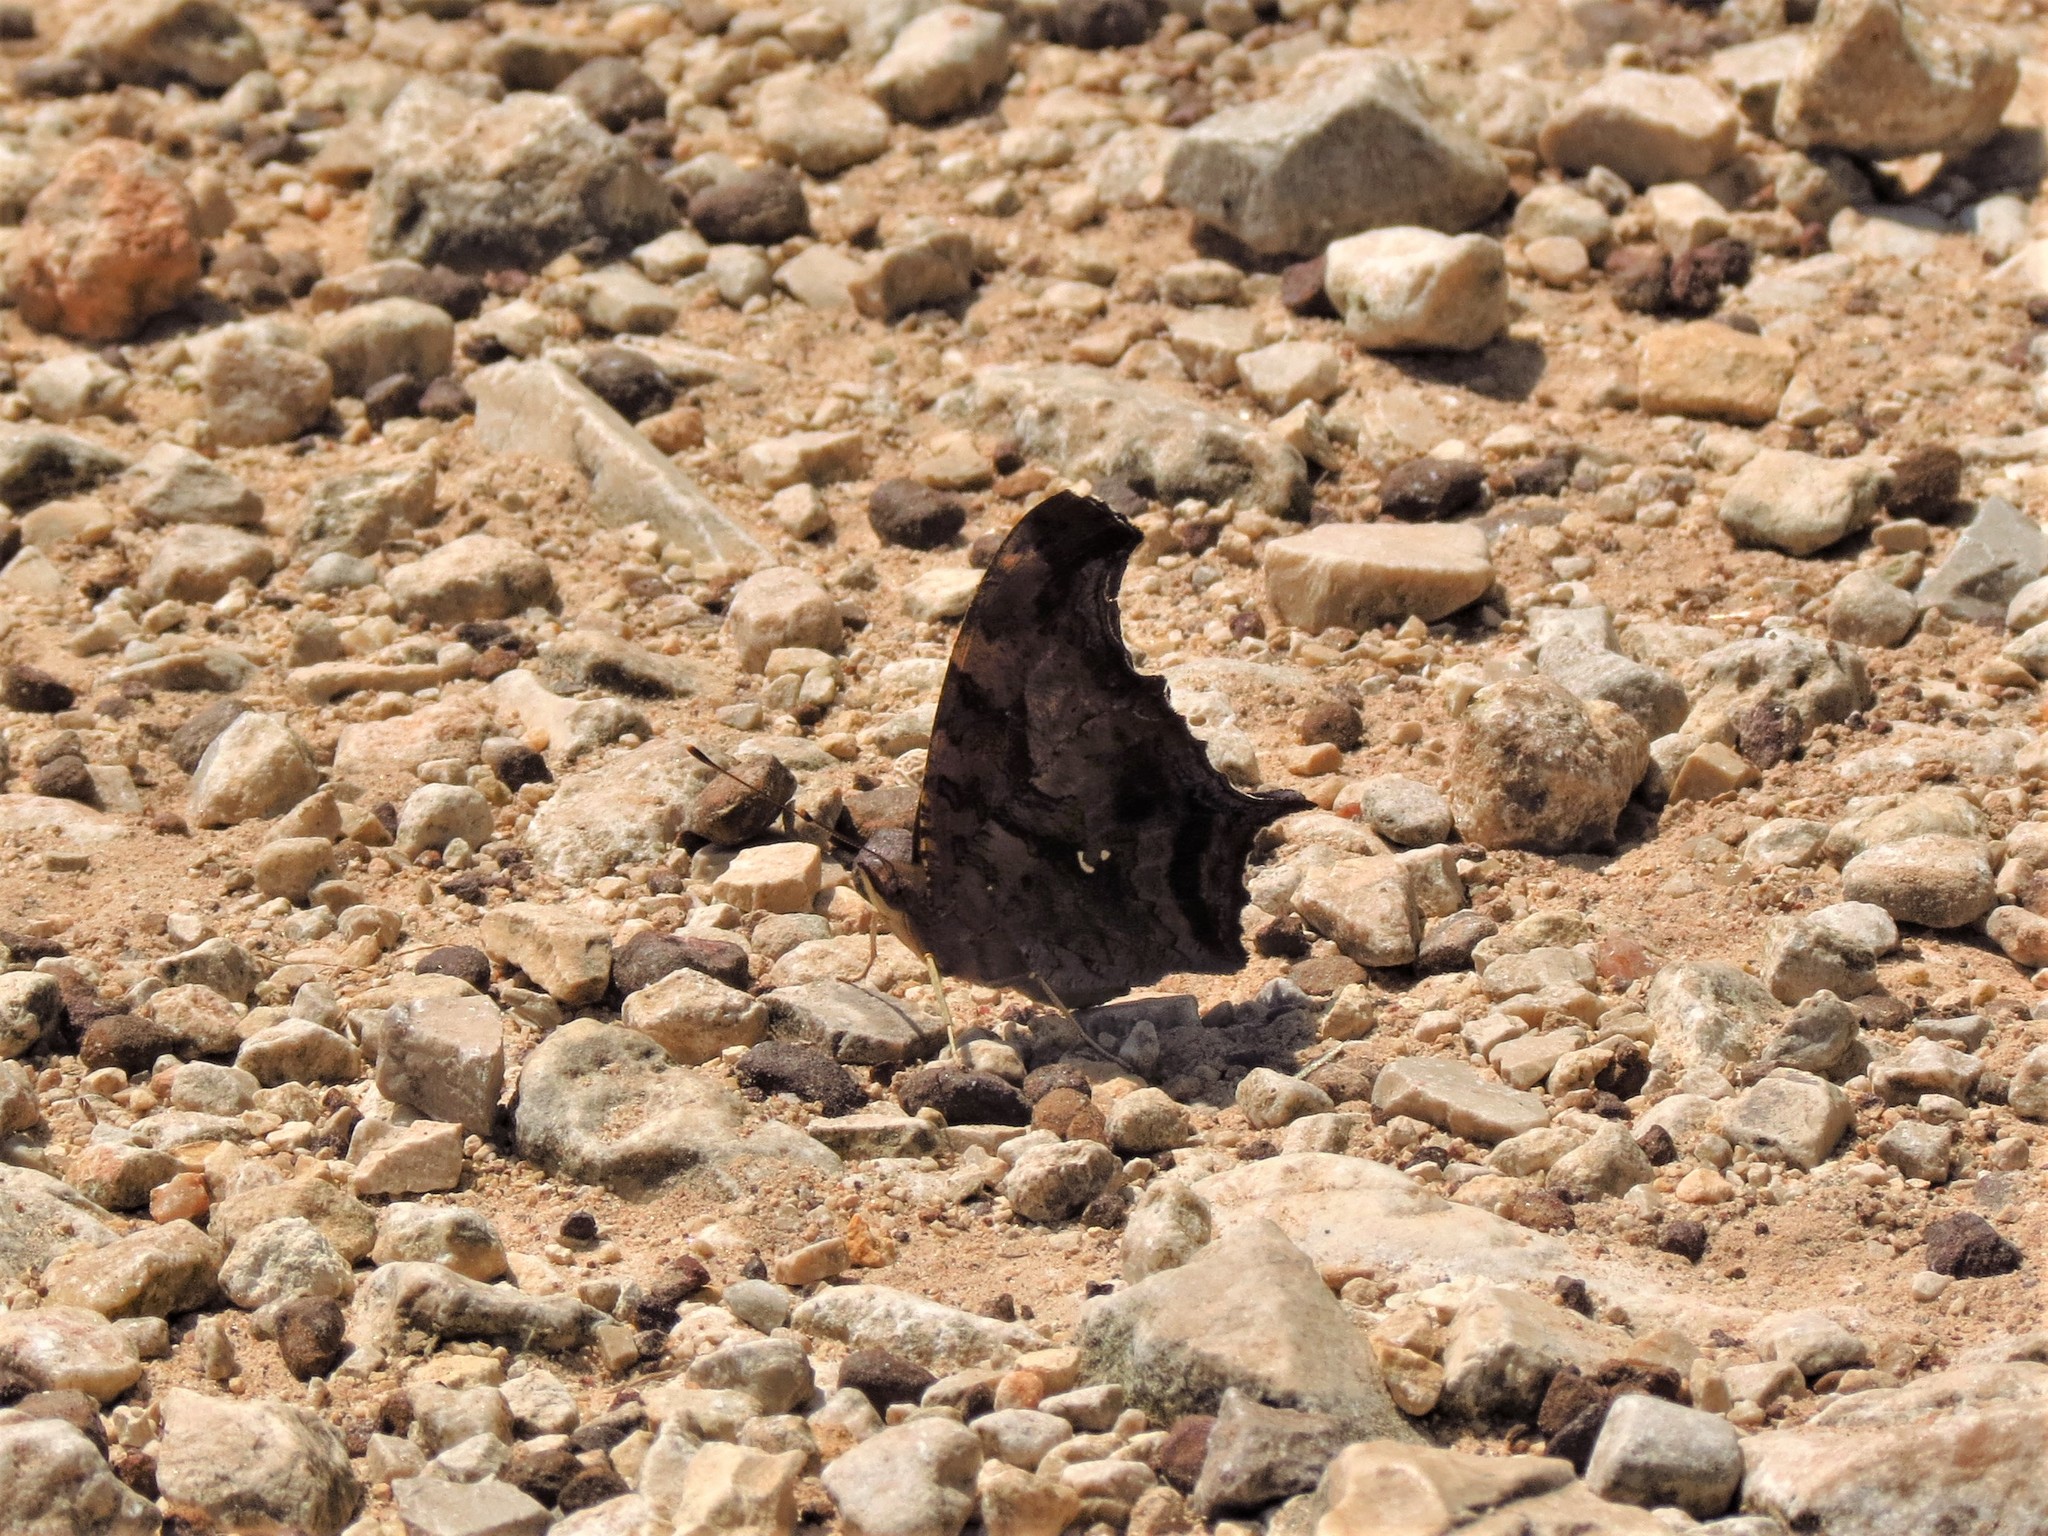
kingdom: Animalia
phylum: Arthropoda
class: Insecta
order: Lepidoptera
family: Nymphalidae
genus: Polygonia
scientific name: Polygonia interrogationis
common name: Question mark
